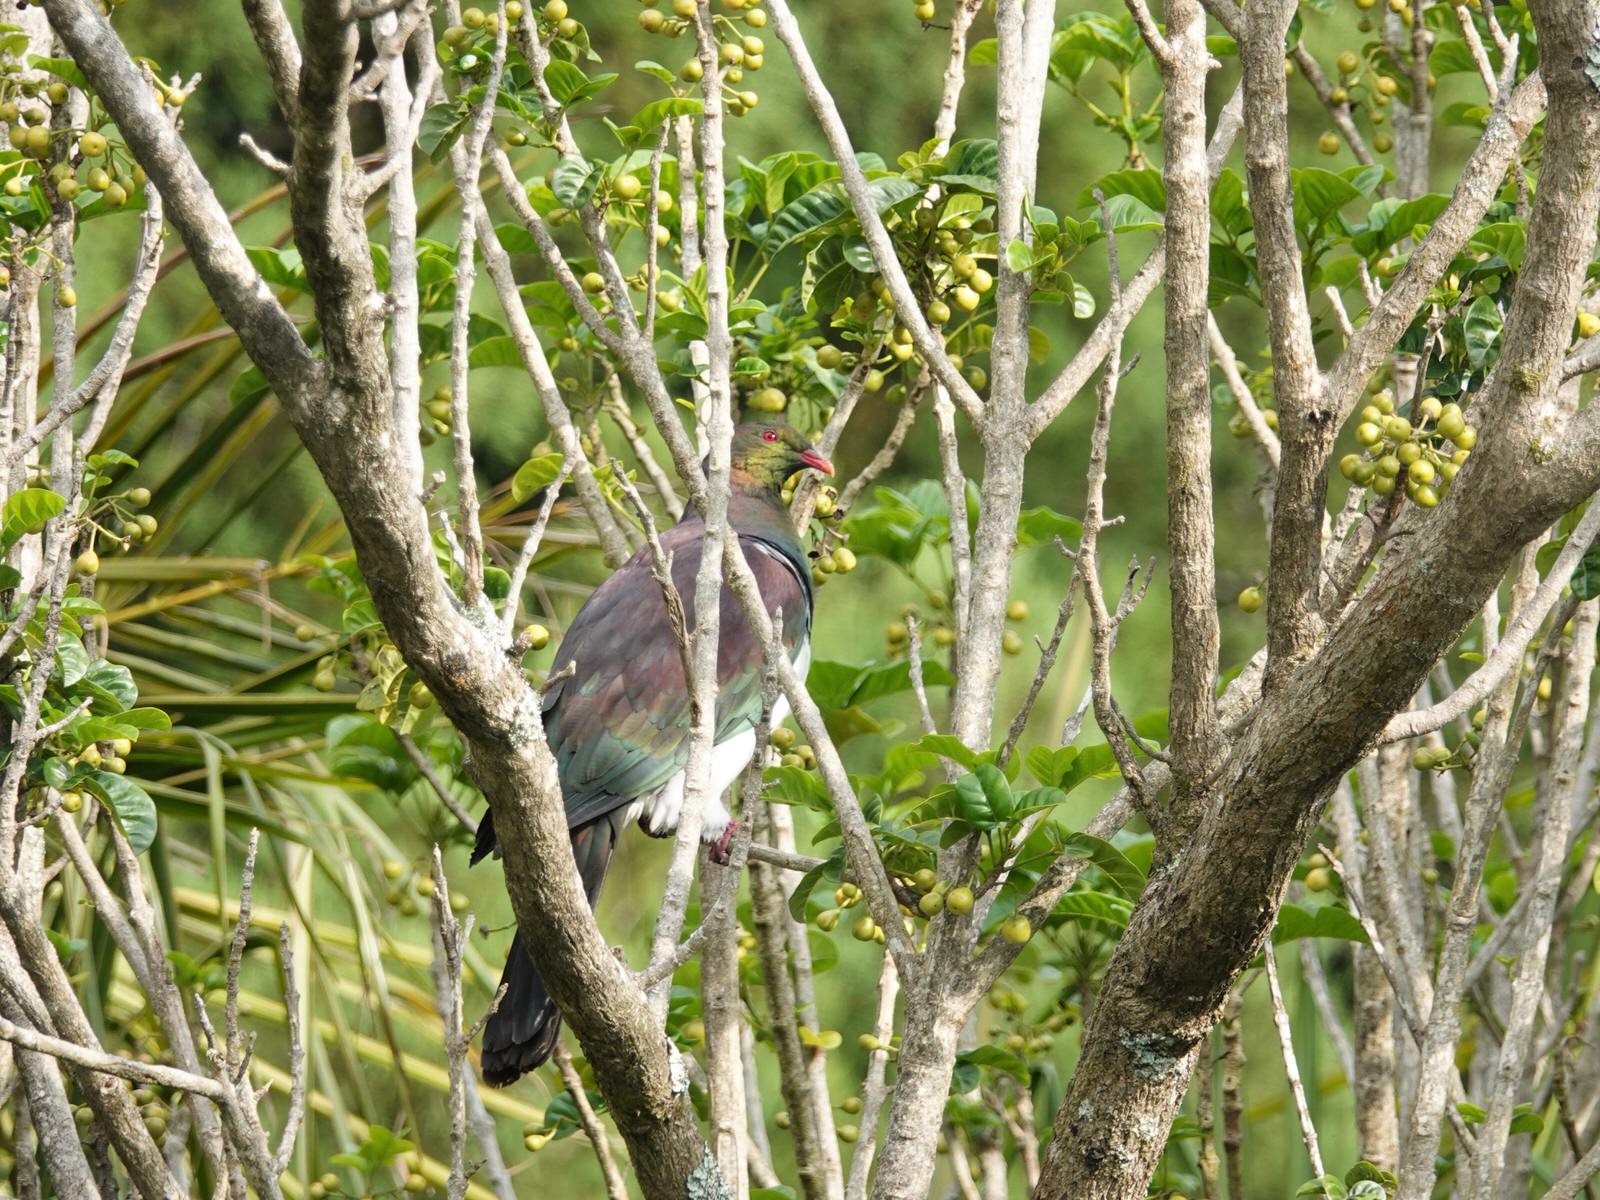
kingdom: Animalia
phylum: Chordata
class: Aves
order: Columbiformes
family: Columbidae
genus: Hemiphaga
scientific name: Hemiphaga novaeseelandiae
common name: New zealand pigeon
